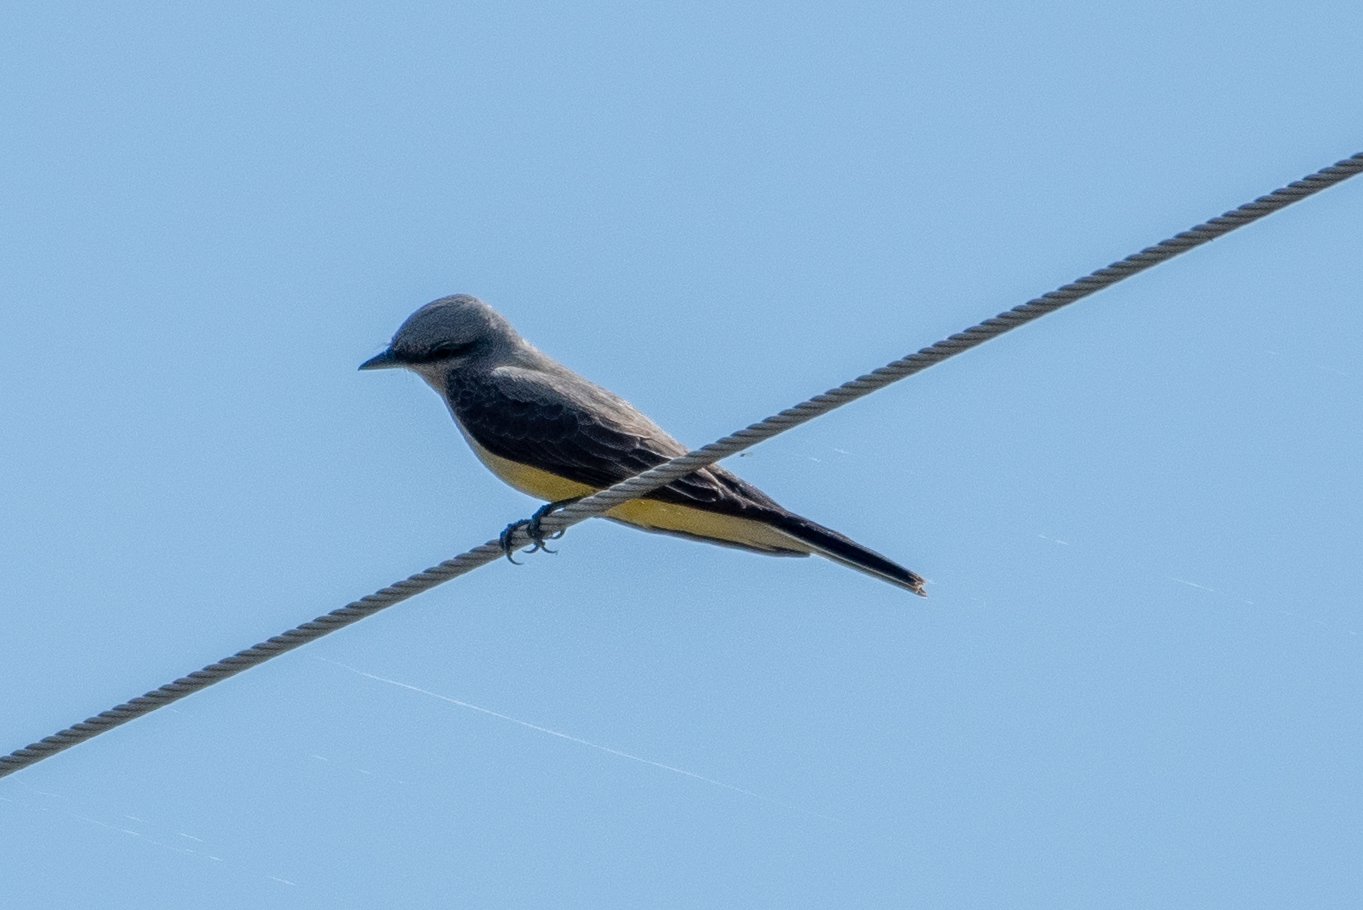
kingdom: Animalia
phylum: Chordata
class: Aves
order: Passeriformes
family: Tyrannidae
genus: Tyrannus
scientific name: Tyrannus verticalis
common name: Western kingbird
